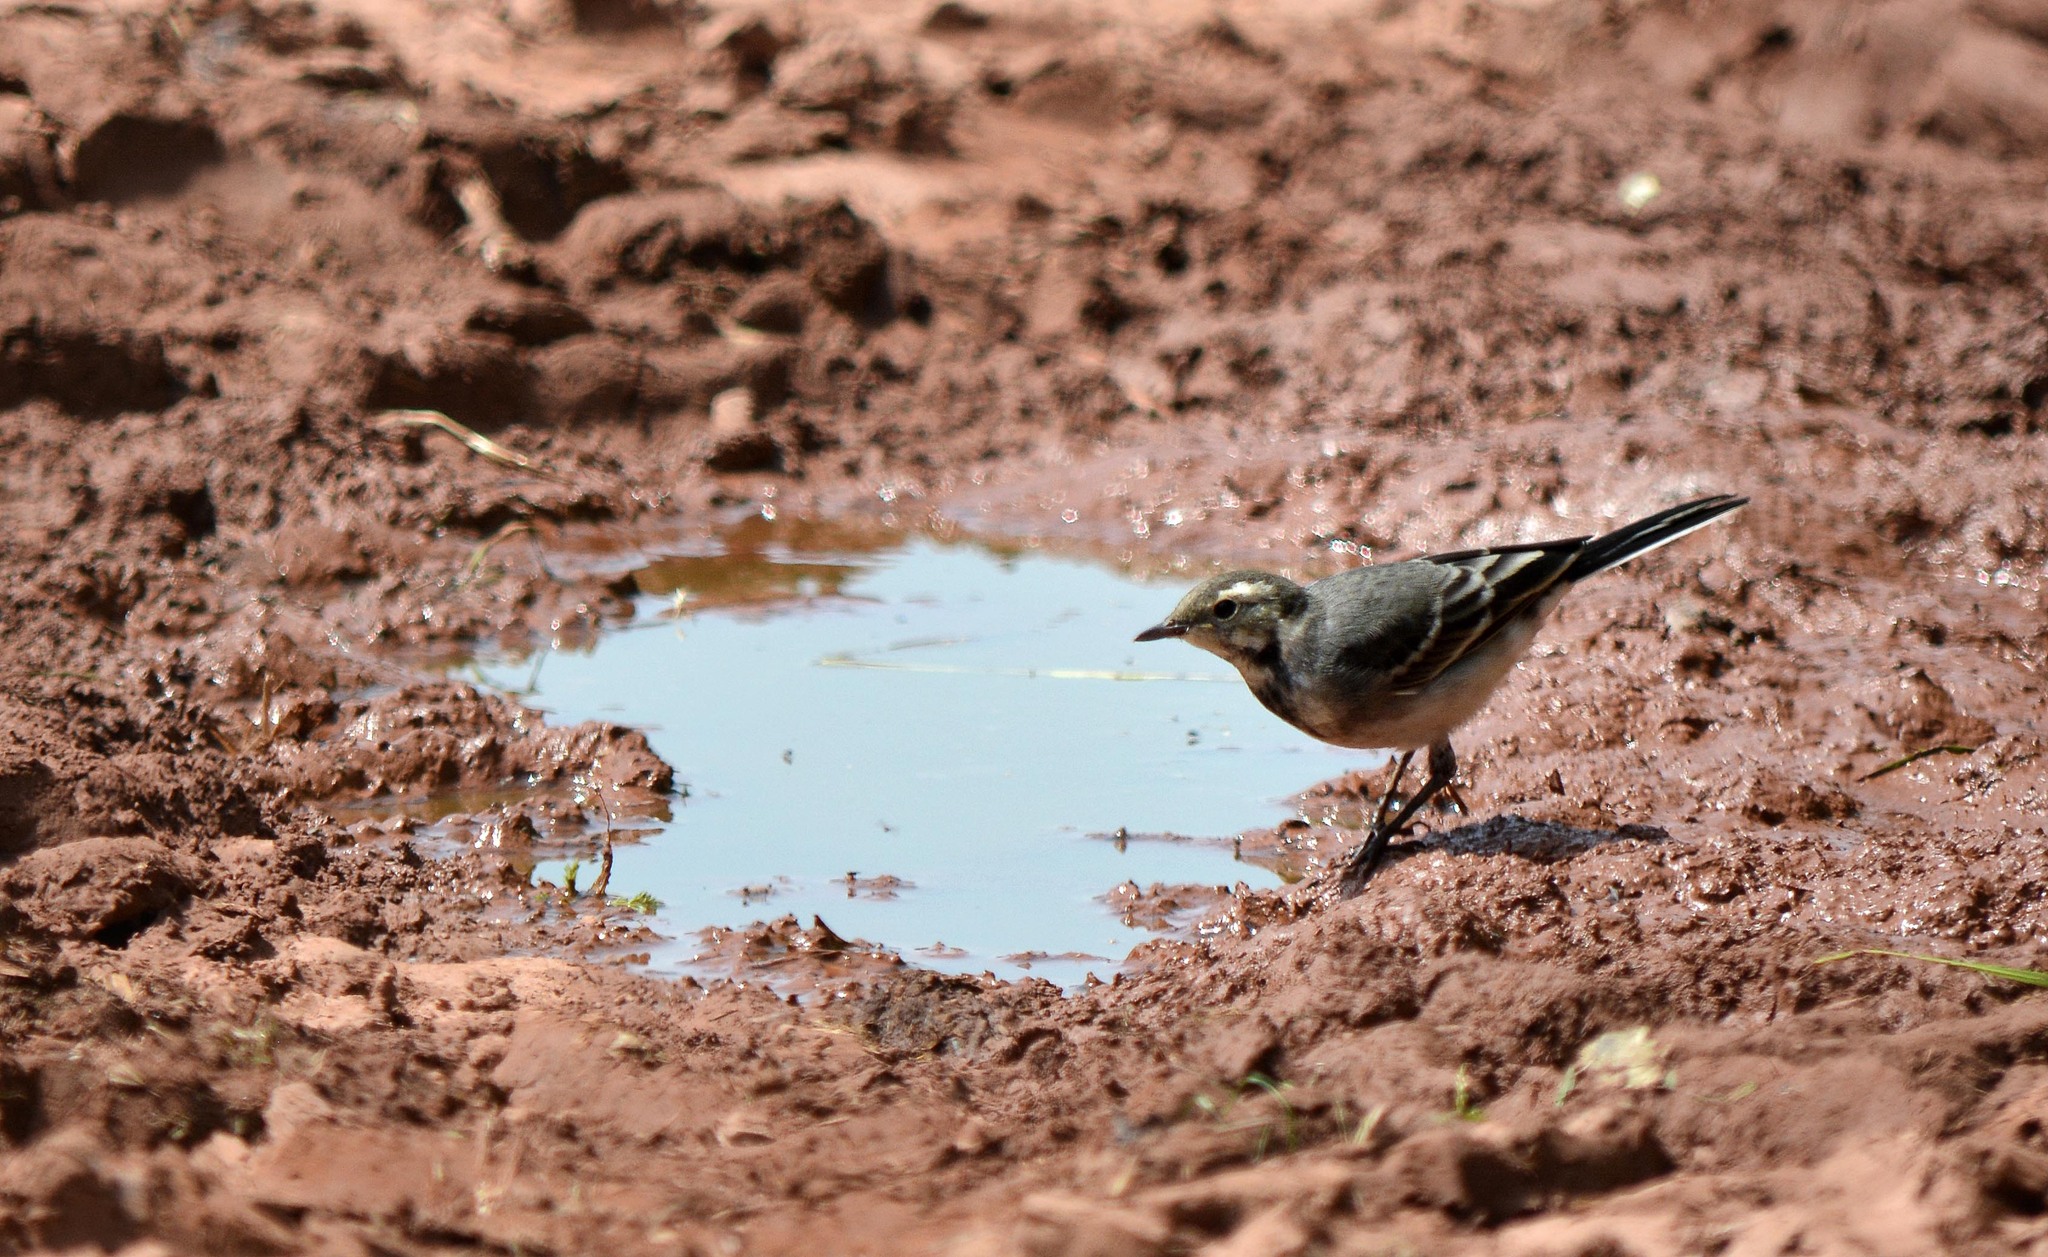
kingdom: Animalia
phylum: Chordata
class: Aves
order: Passeriformes
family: Motacillidae
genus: Motacilla
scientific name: Motacilla alba
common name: White wagtail
